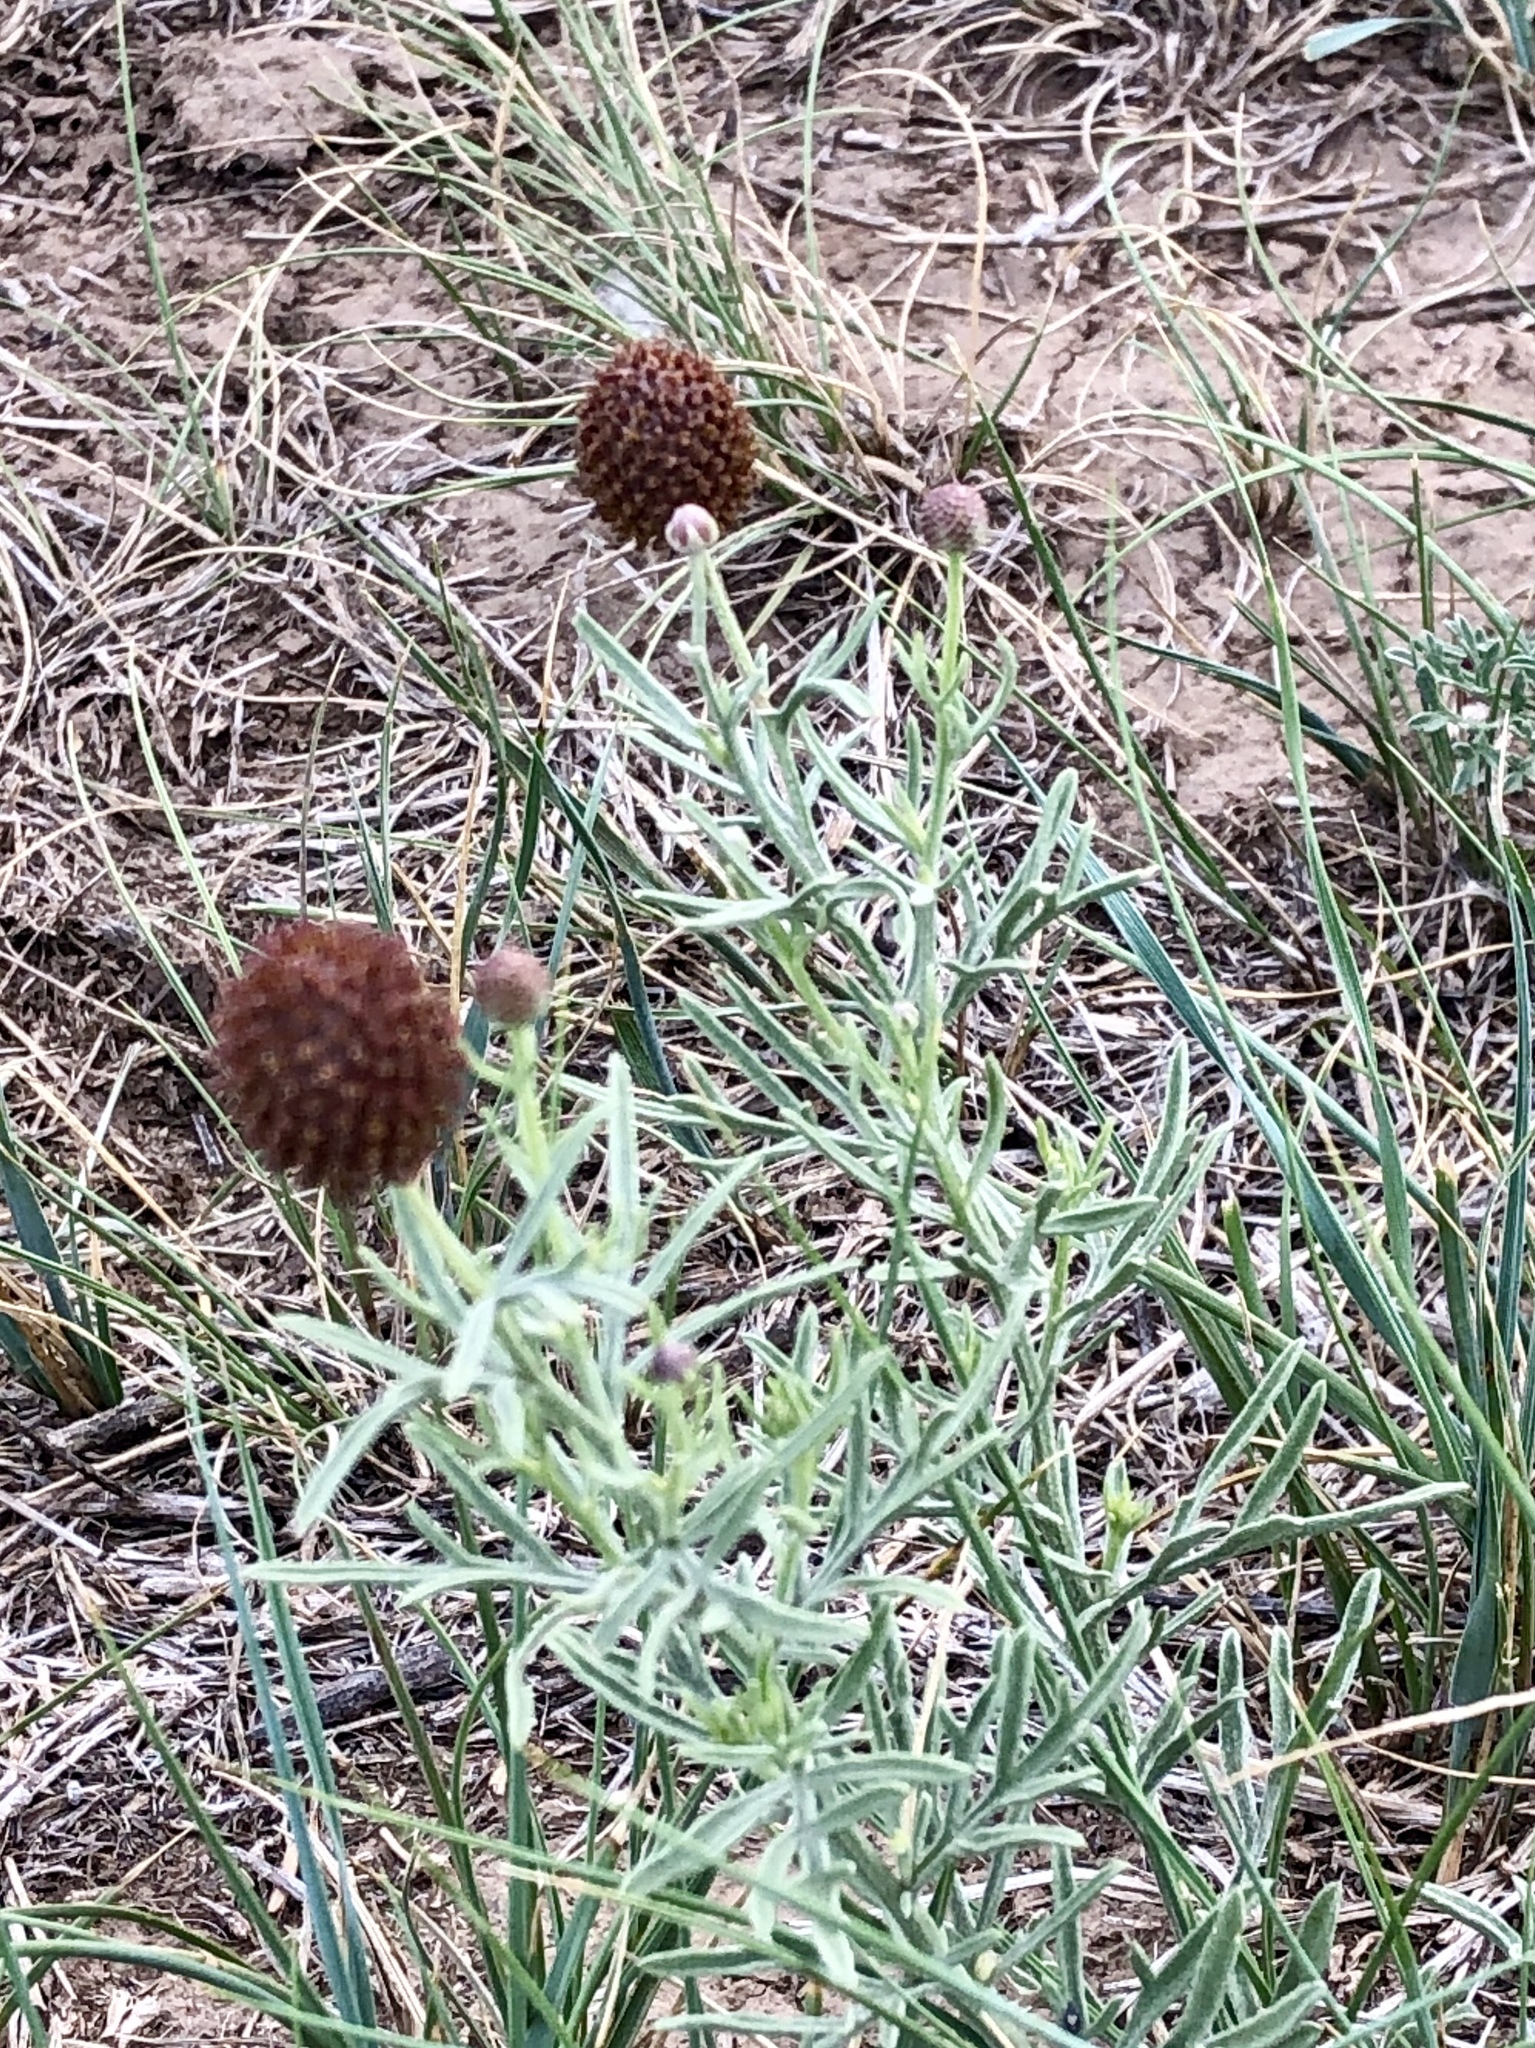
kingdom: Plantae
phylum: Tracheophyta
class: Magnoliopsida
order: Asterales
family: Asteraceae
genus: Ratibida
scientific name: Ratibida tagetes
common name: Green mexican-hat
